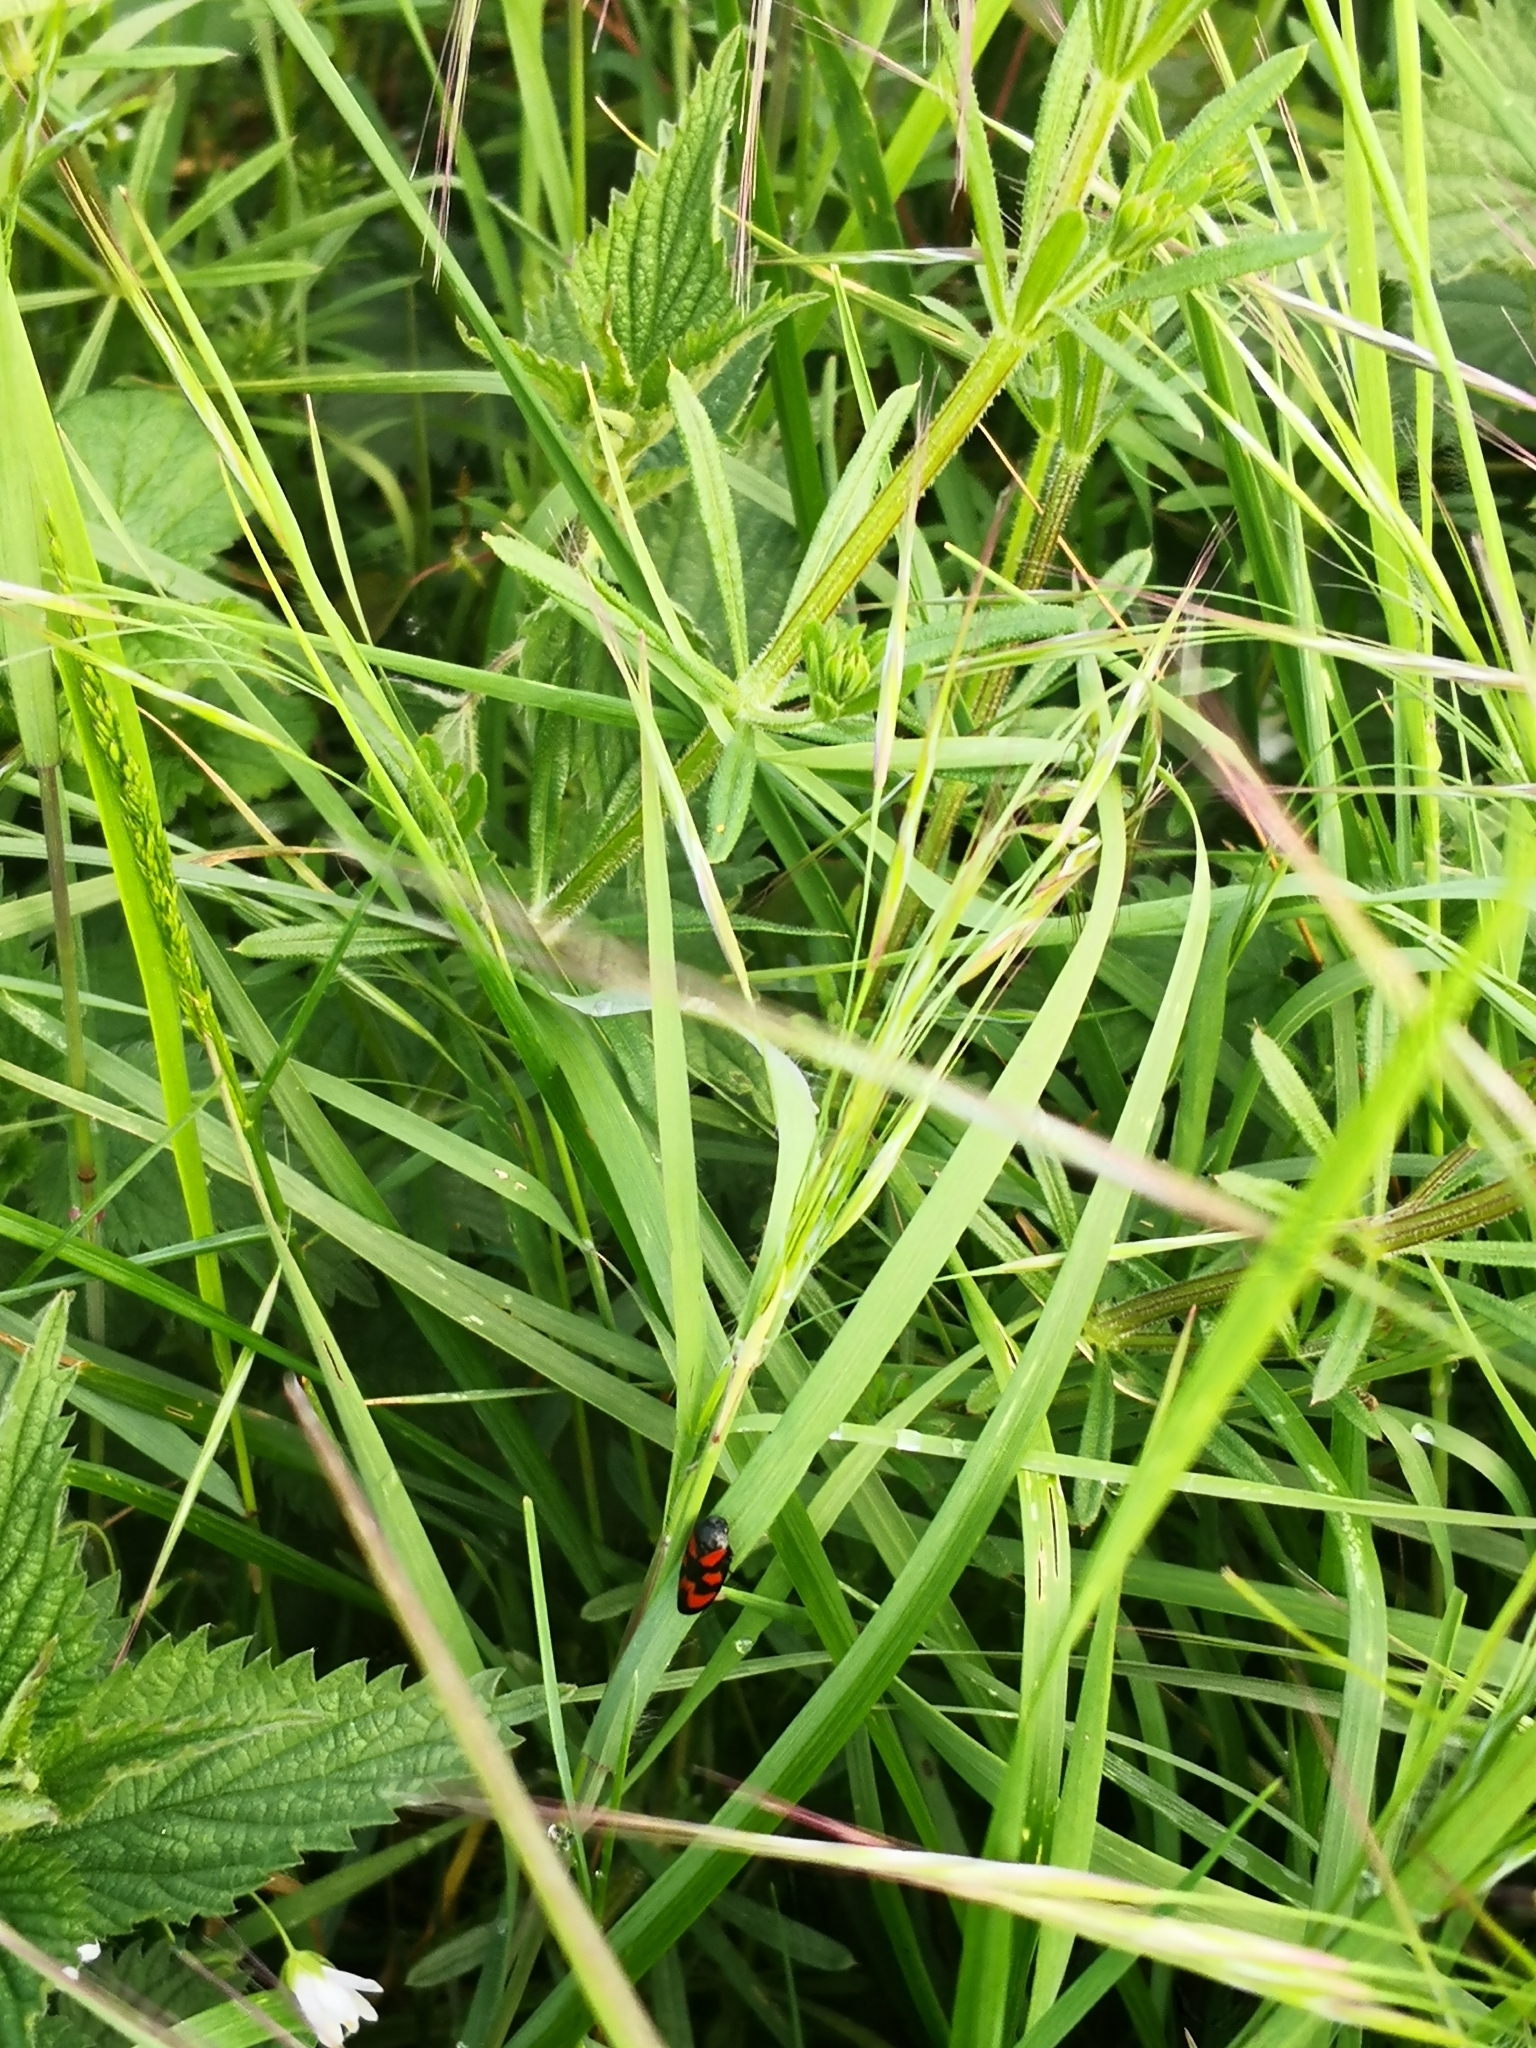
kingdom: Animalia
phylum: Arthropoda
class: Insecta
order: Hemiptera
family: Cercopidae
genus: Cercopis
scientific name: Cercopis vulnerata
